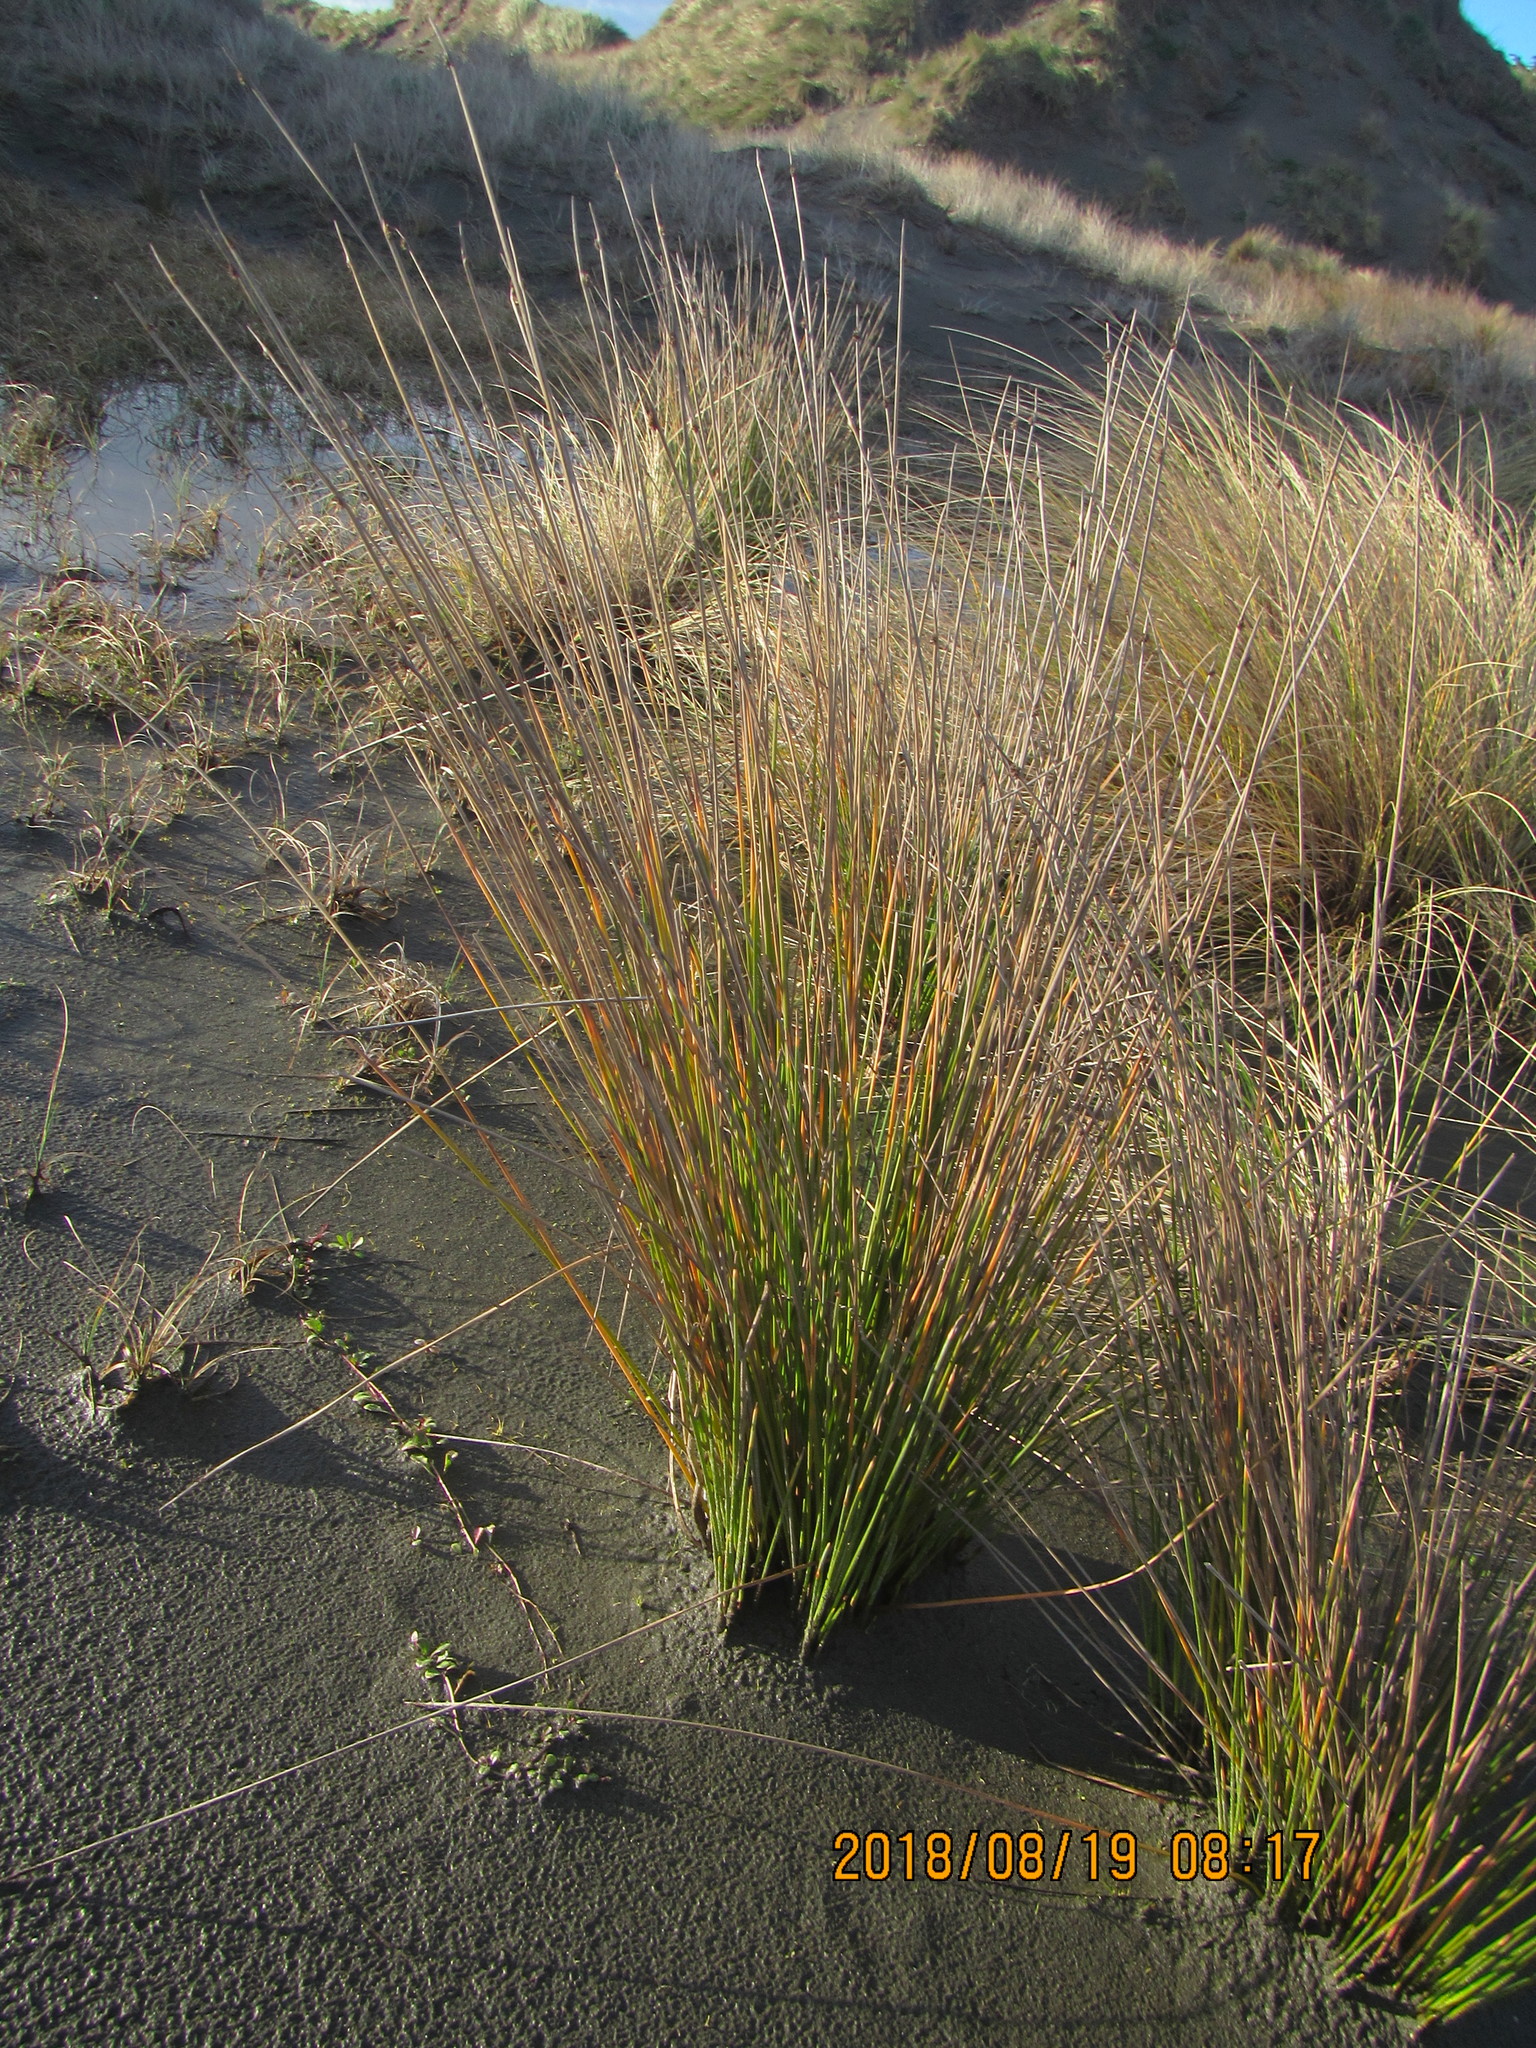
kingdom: Plantae
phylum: Tracheophyta
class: Liliopsida
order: Poales
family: Cyperaceae
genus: Ficinia
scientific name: Ficinia nodosa
